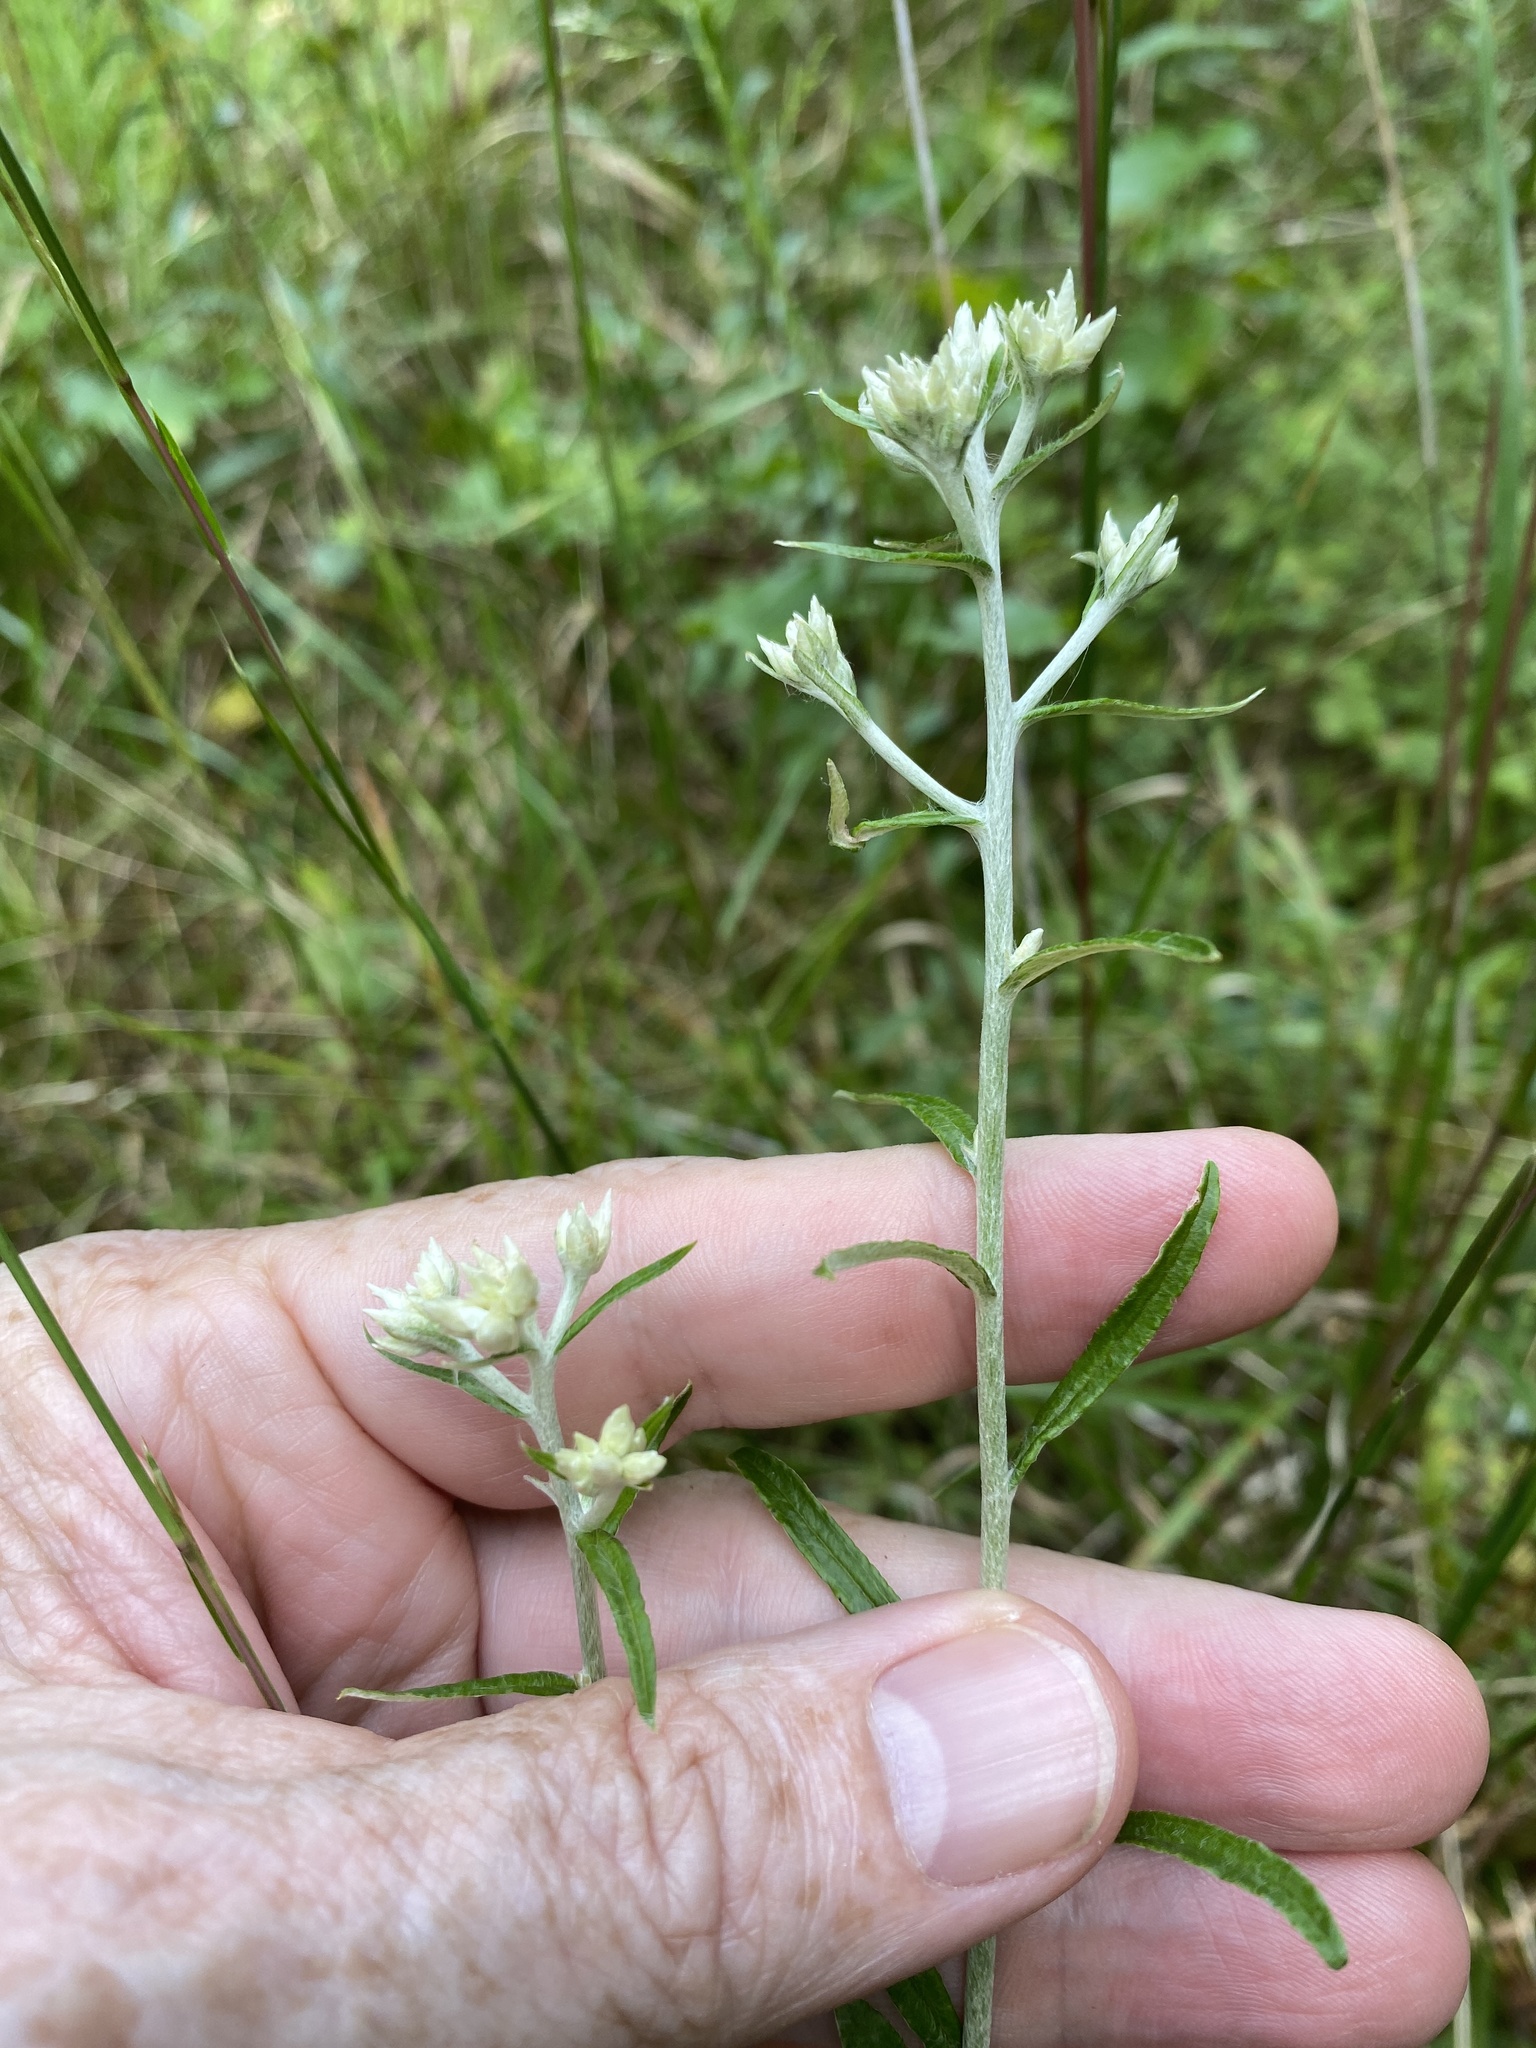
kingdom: Plantae
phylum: Tracheophyta
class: Magnoliopsida
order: Asterales
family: Asteraceae
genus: Pseudognaphalium
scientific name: Pseudognaphalium obtusifolium
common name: Eastern rabbit-tobacco
